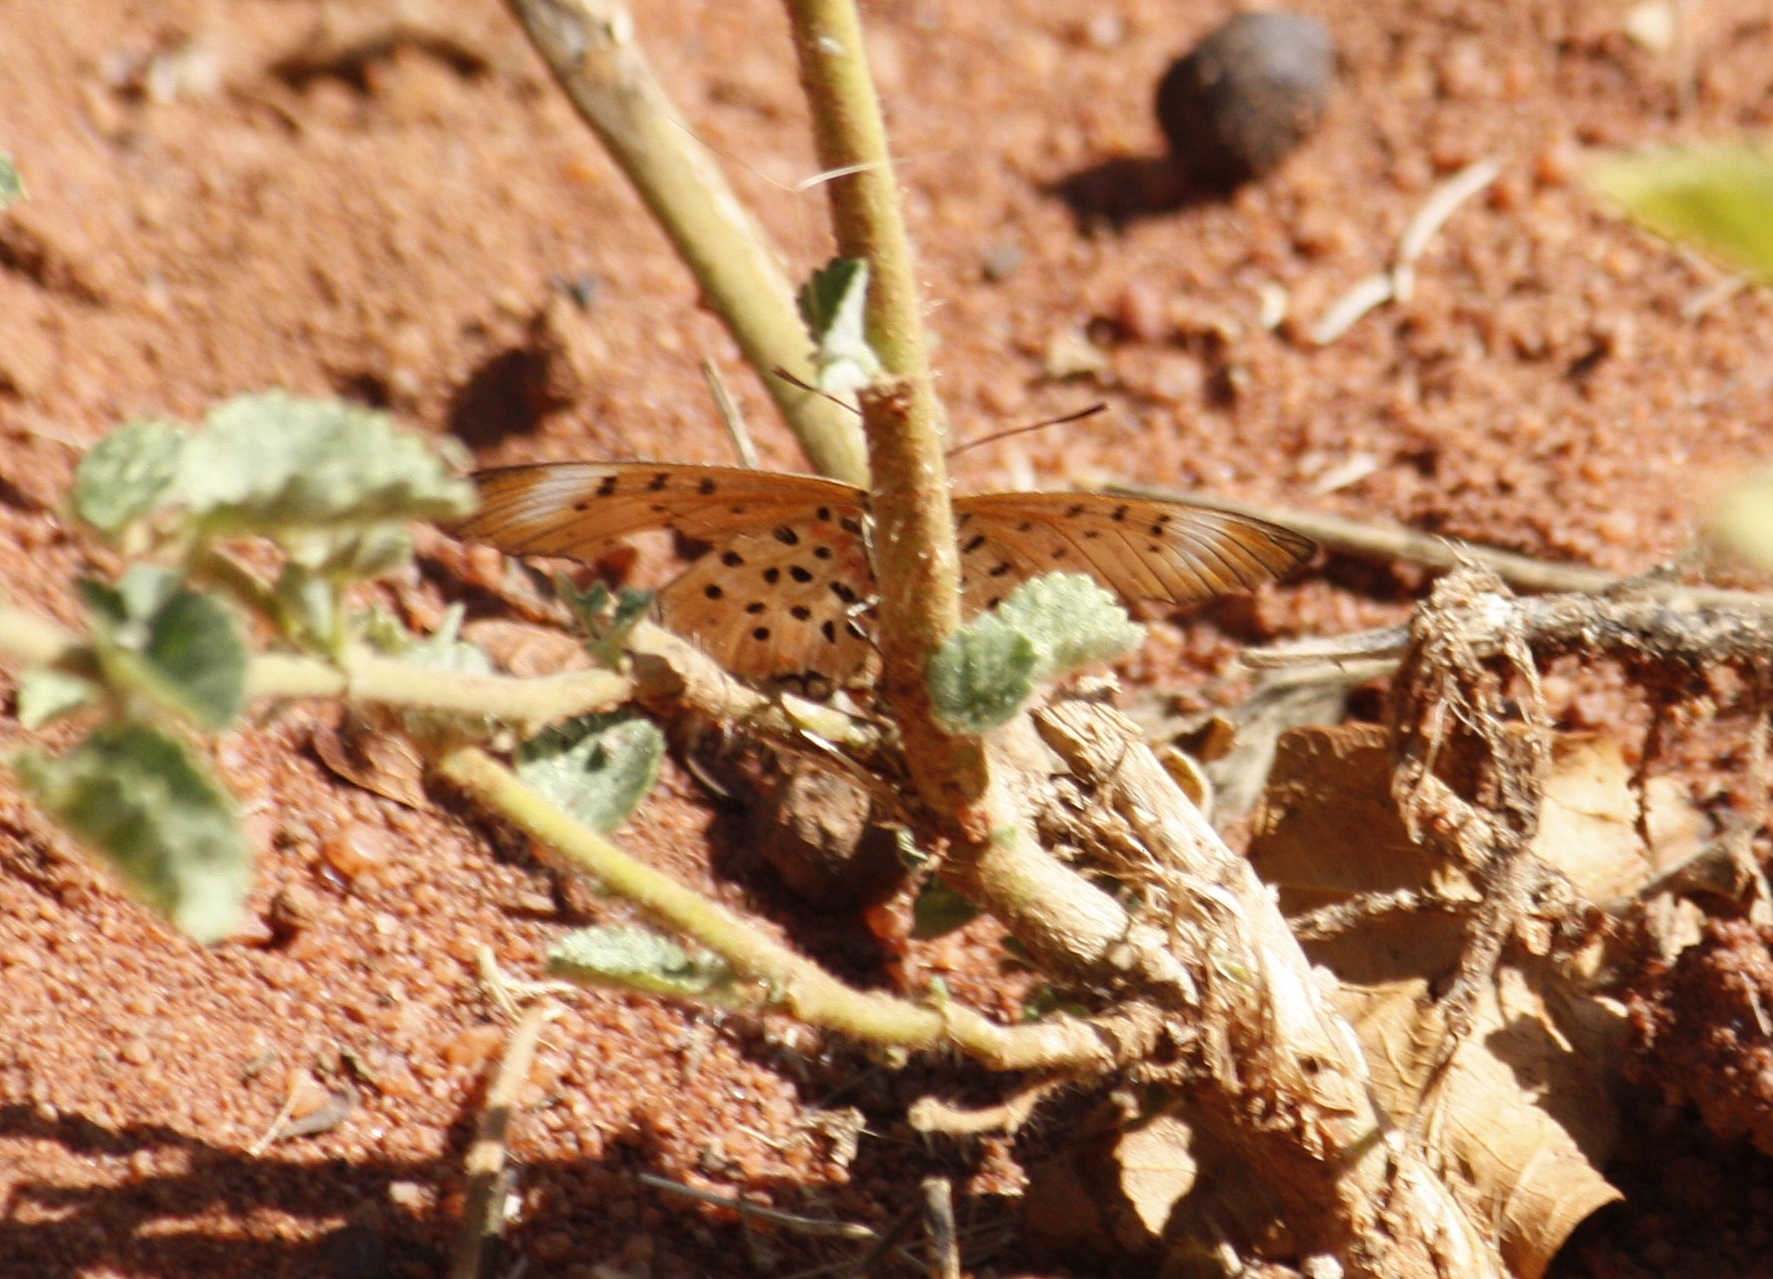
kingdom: Animalia
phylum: Arthropoda
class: Insecta
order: Lepidoptera
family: Nymphalidae
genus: Stephenia
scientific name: Stephenia
